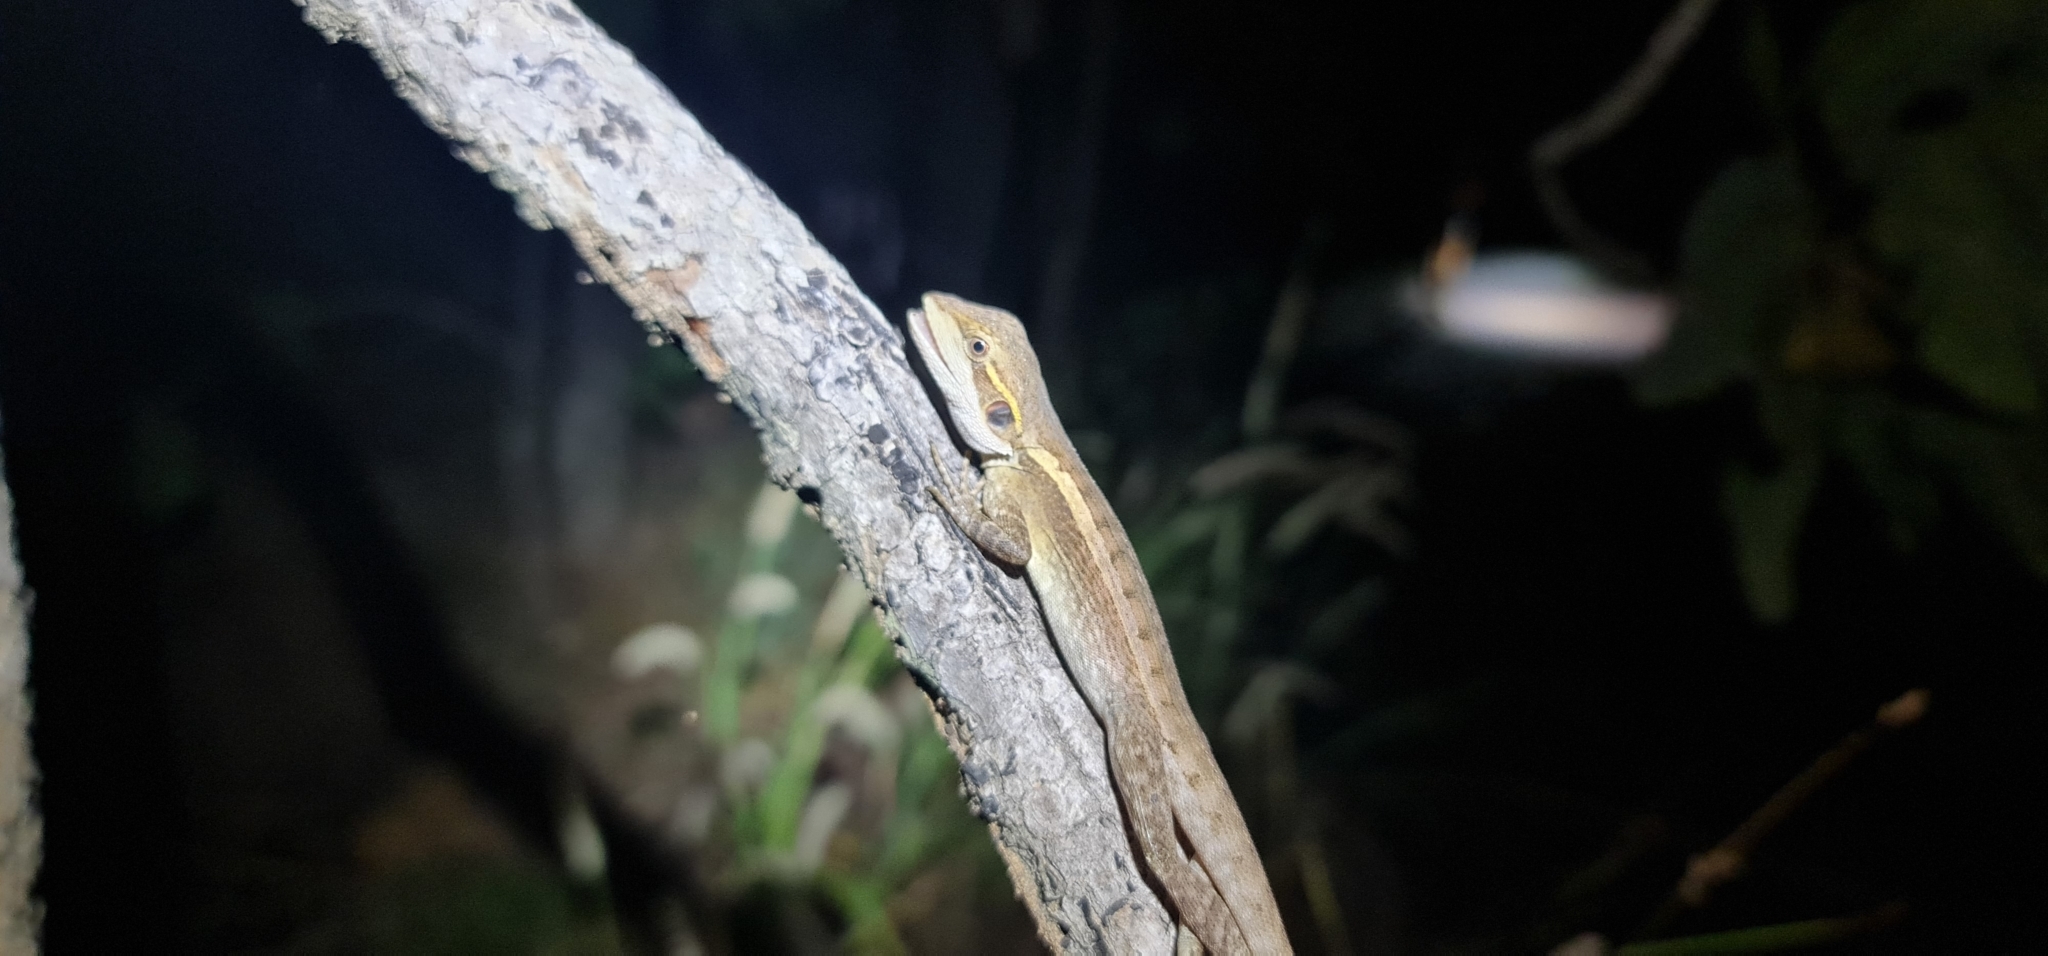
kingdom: Animalia
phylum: Chordata
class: Squamata
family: Agamidae
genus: Lophognathus
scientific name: Lophognathus gilberti
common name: Gilbert's dragon
